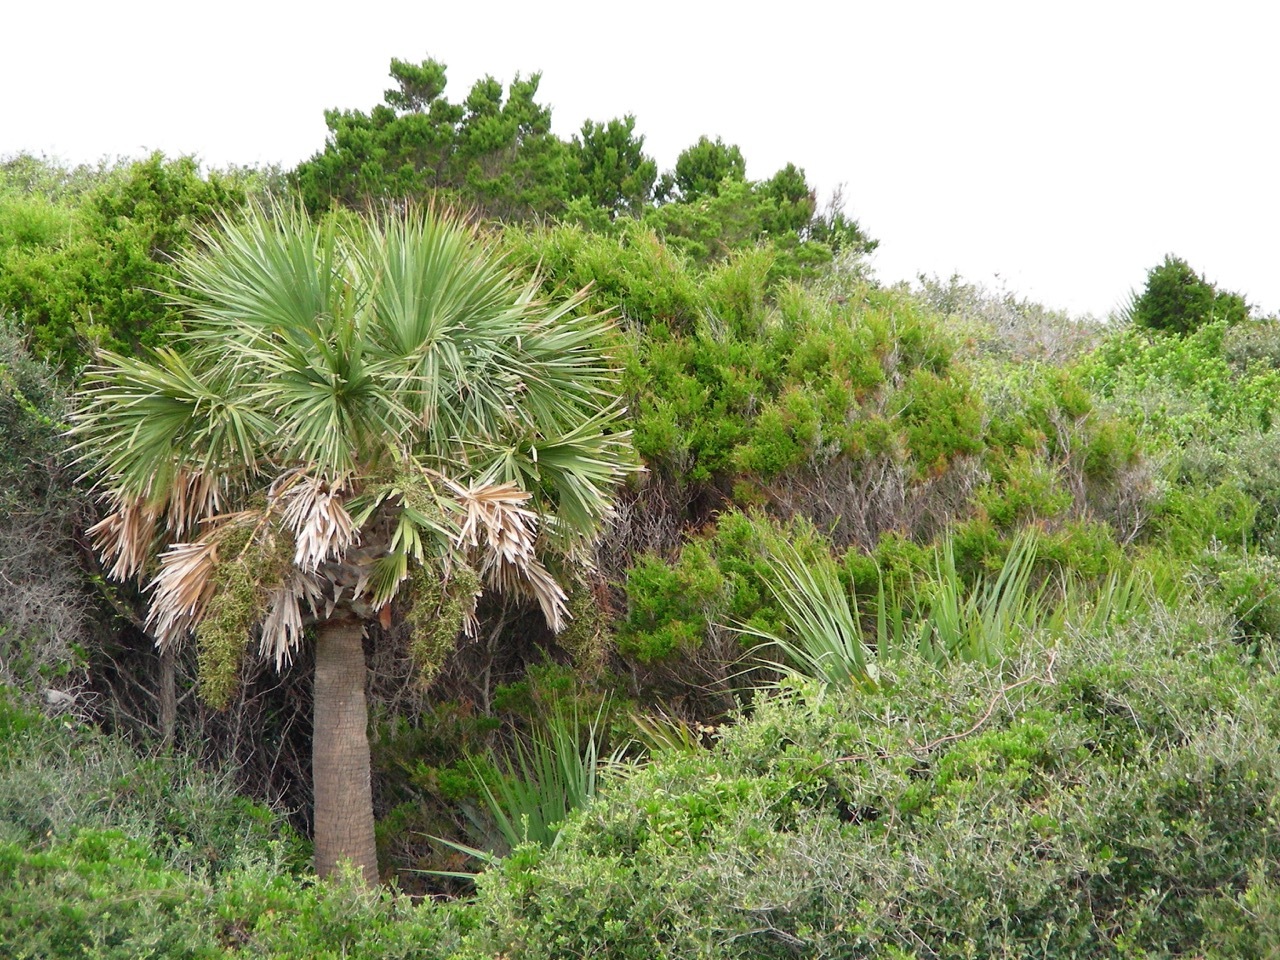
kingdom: Plantae
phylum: Tracheophyta
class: Liliopsida
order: Arecales
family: Arecaceae
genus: Sabal
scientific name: Sabal palmetto
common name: Blue palmetto
